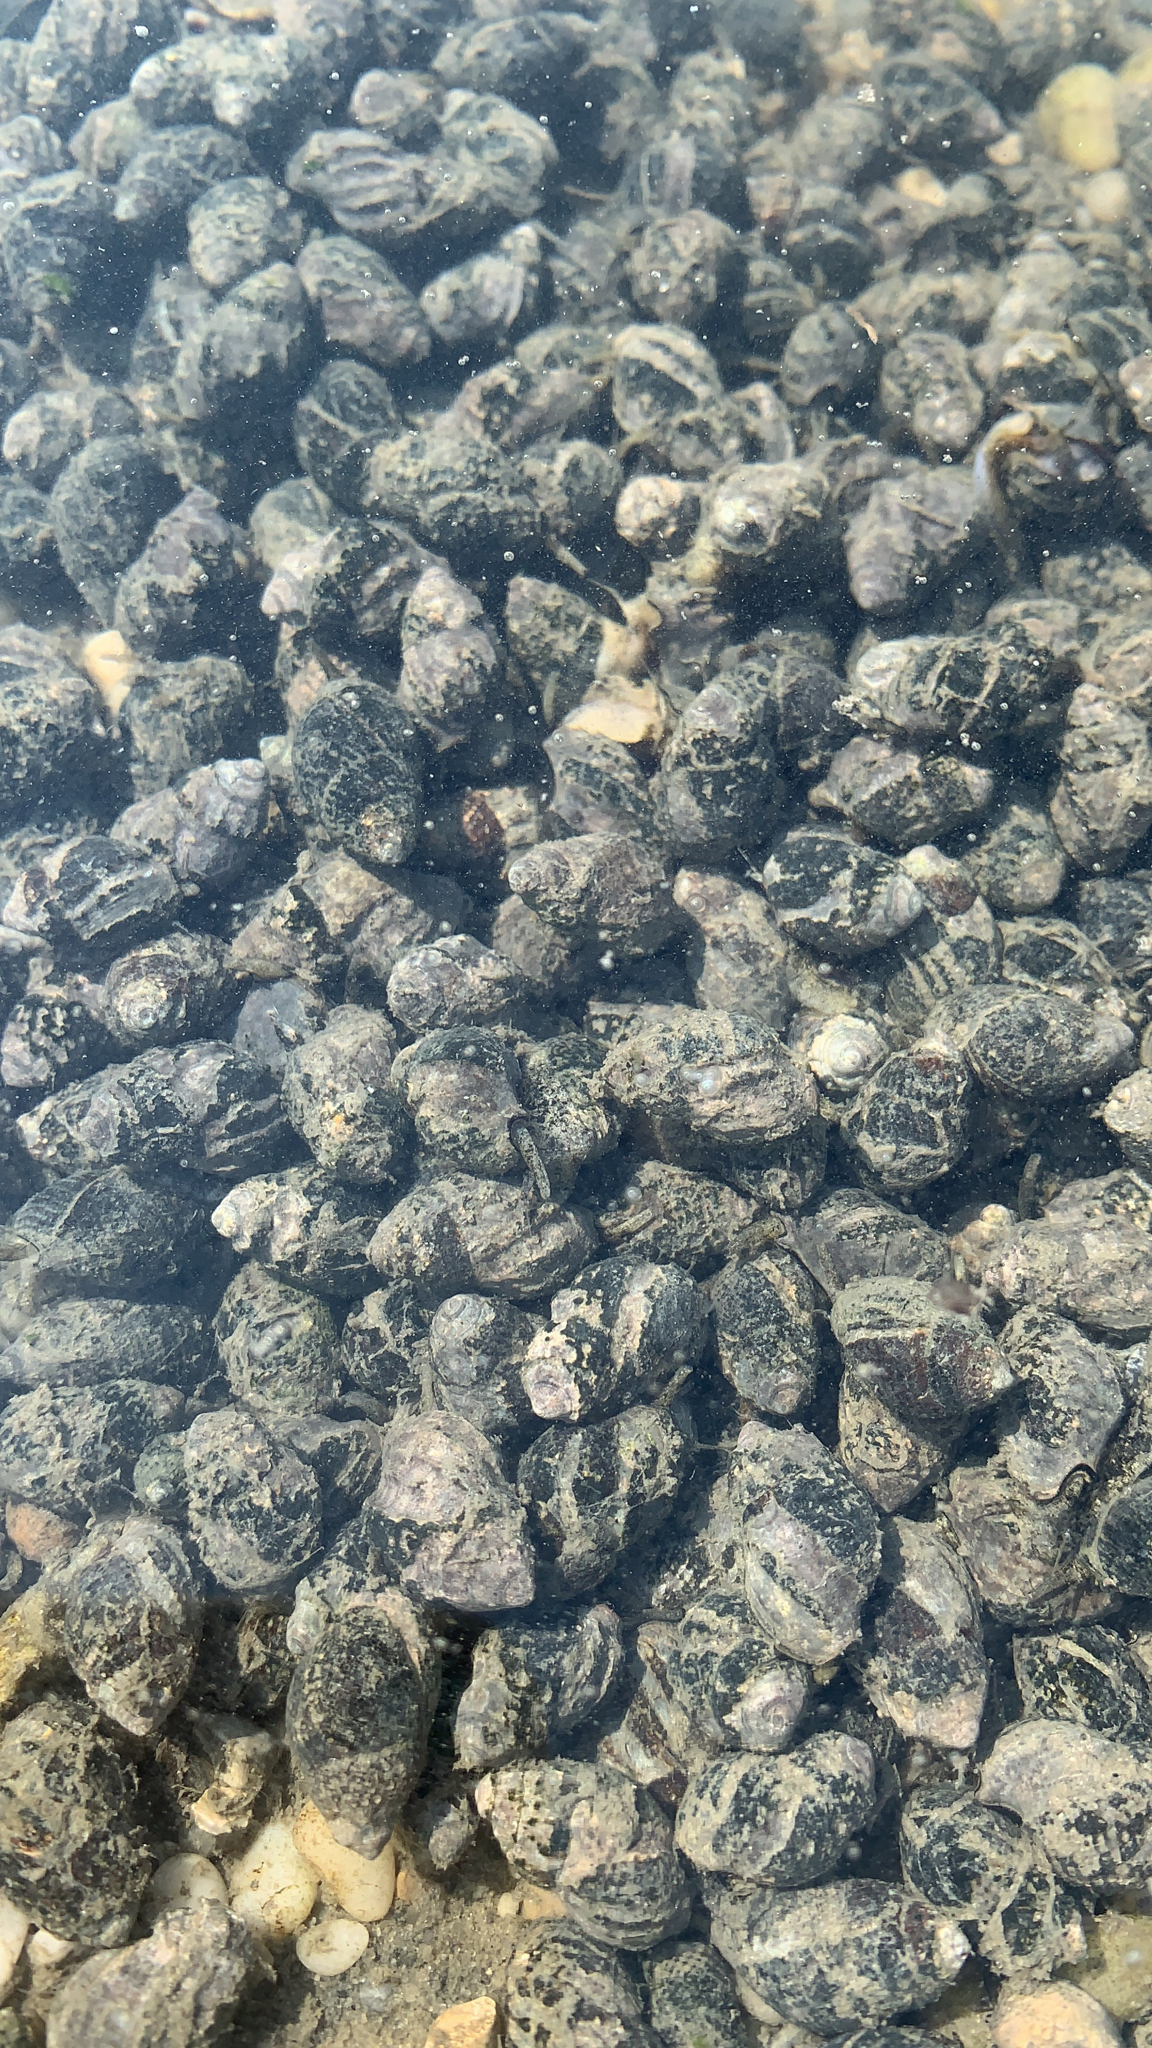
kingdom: Animalia
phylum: Mollusca
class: Gastropoda
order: Neogastropoda
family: Nassariidae
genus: Ilyanassa
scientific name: Ilyanassa obsoleta
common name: Eastern mudsnail
